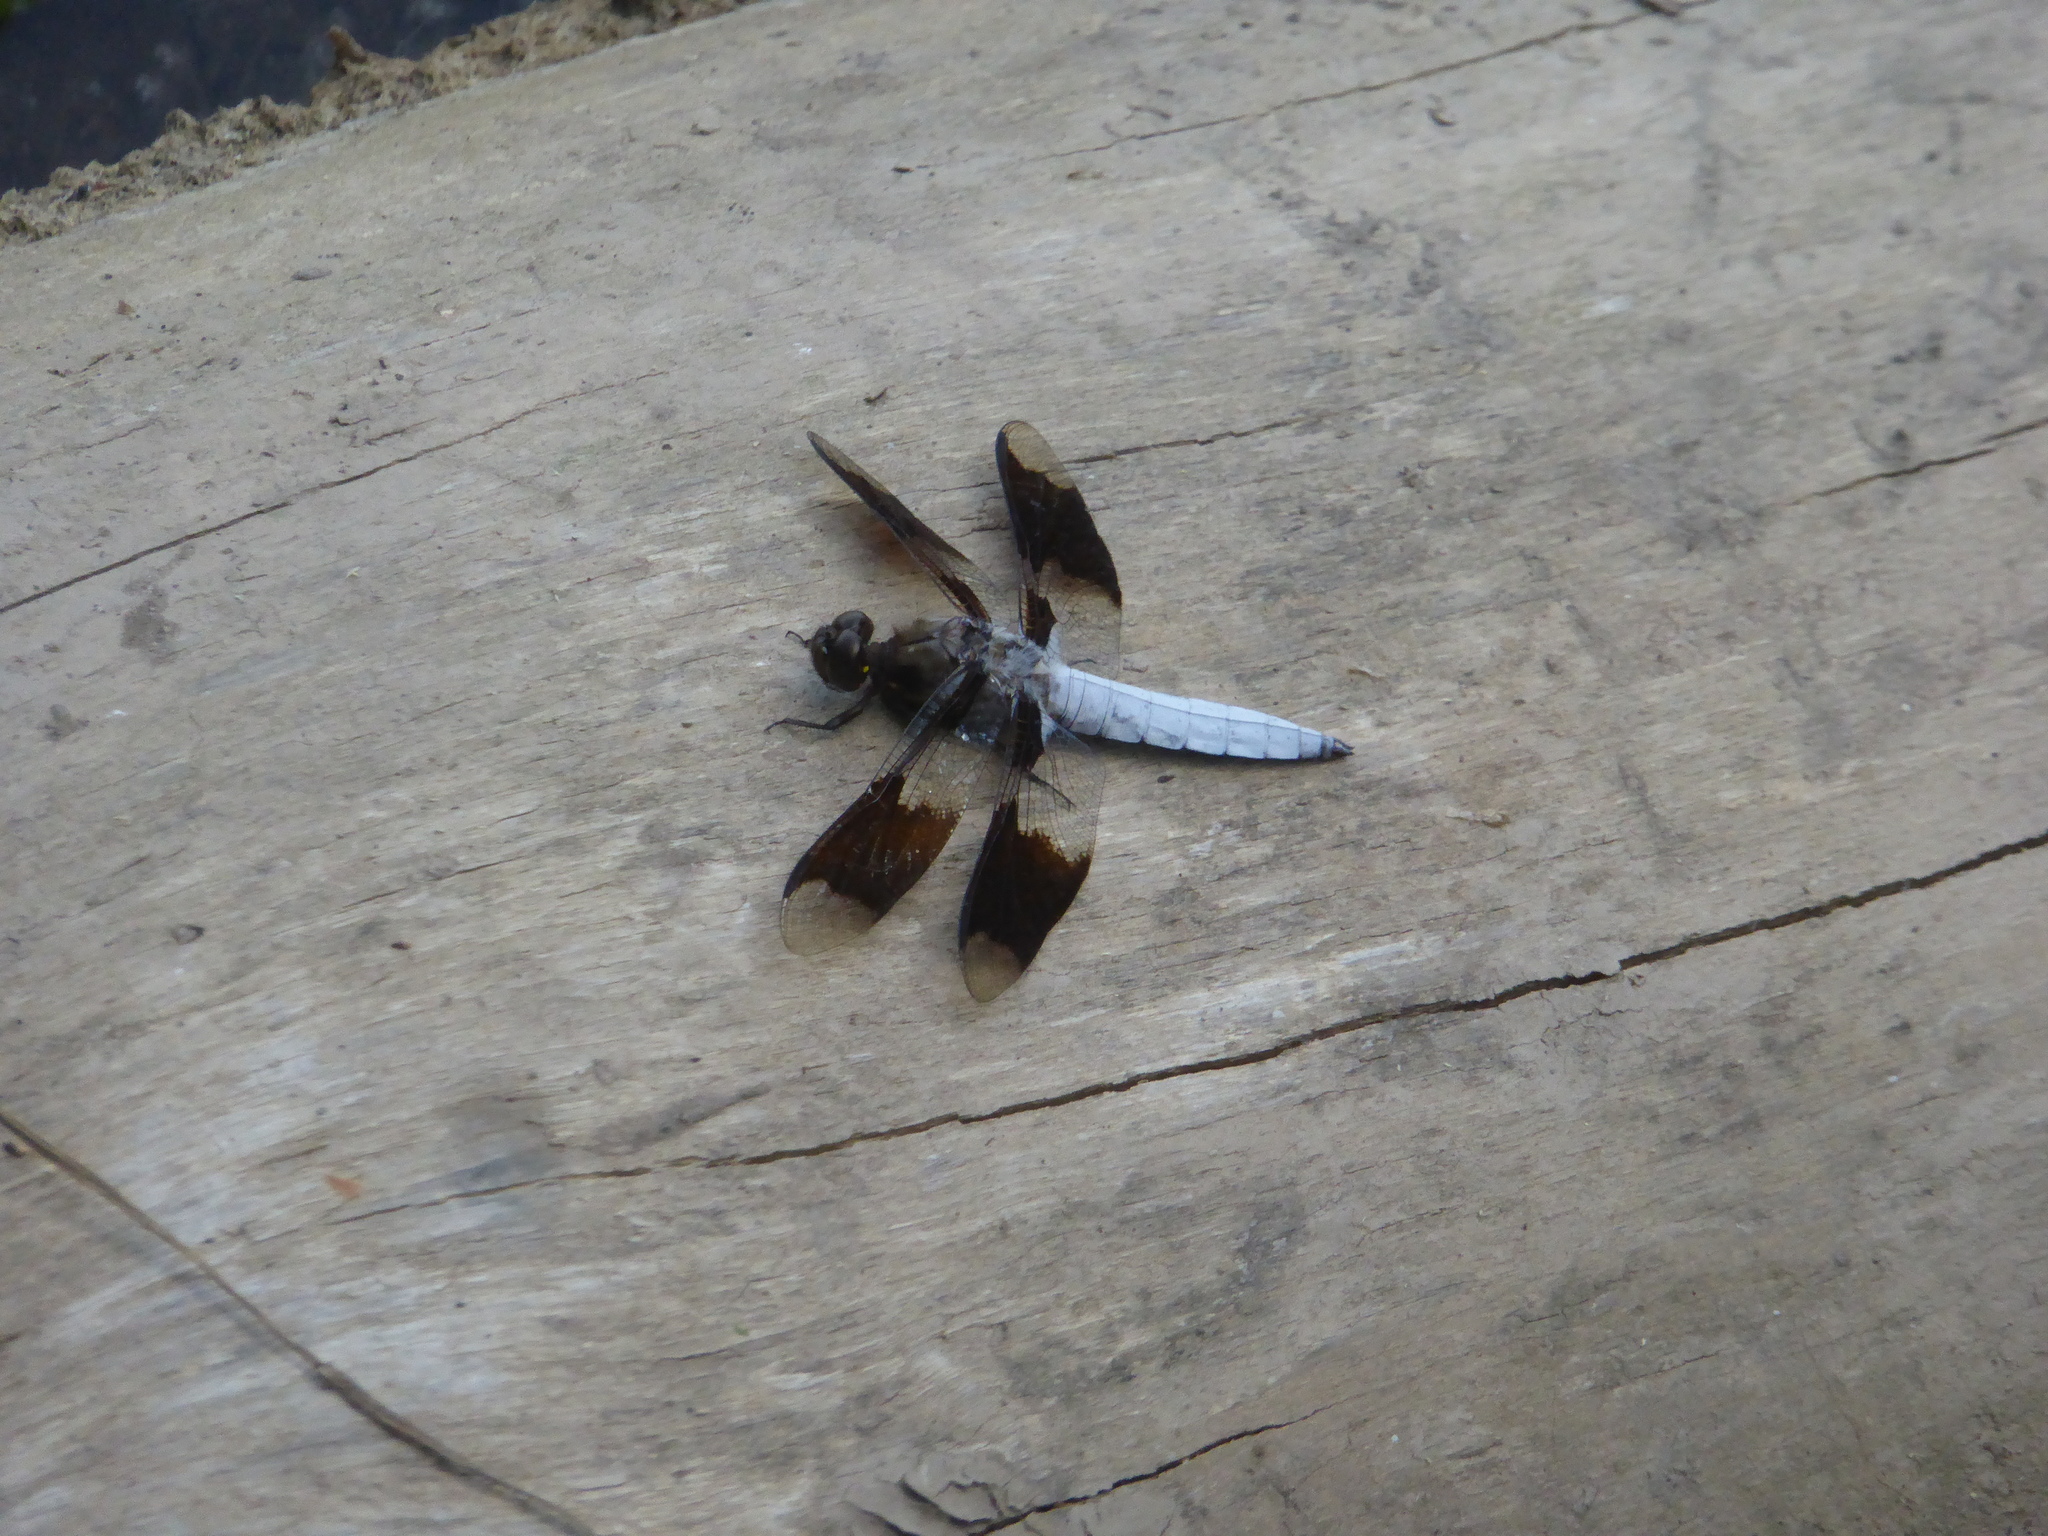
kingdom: Animalia
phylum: Arthropoda
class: Insecta
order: Odonata
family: Libellulidae
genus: Plathemis
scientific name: Plathemis lydia
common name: Common whitetail
